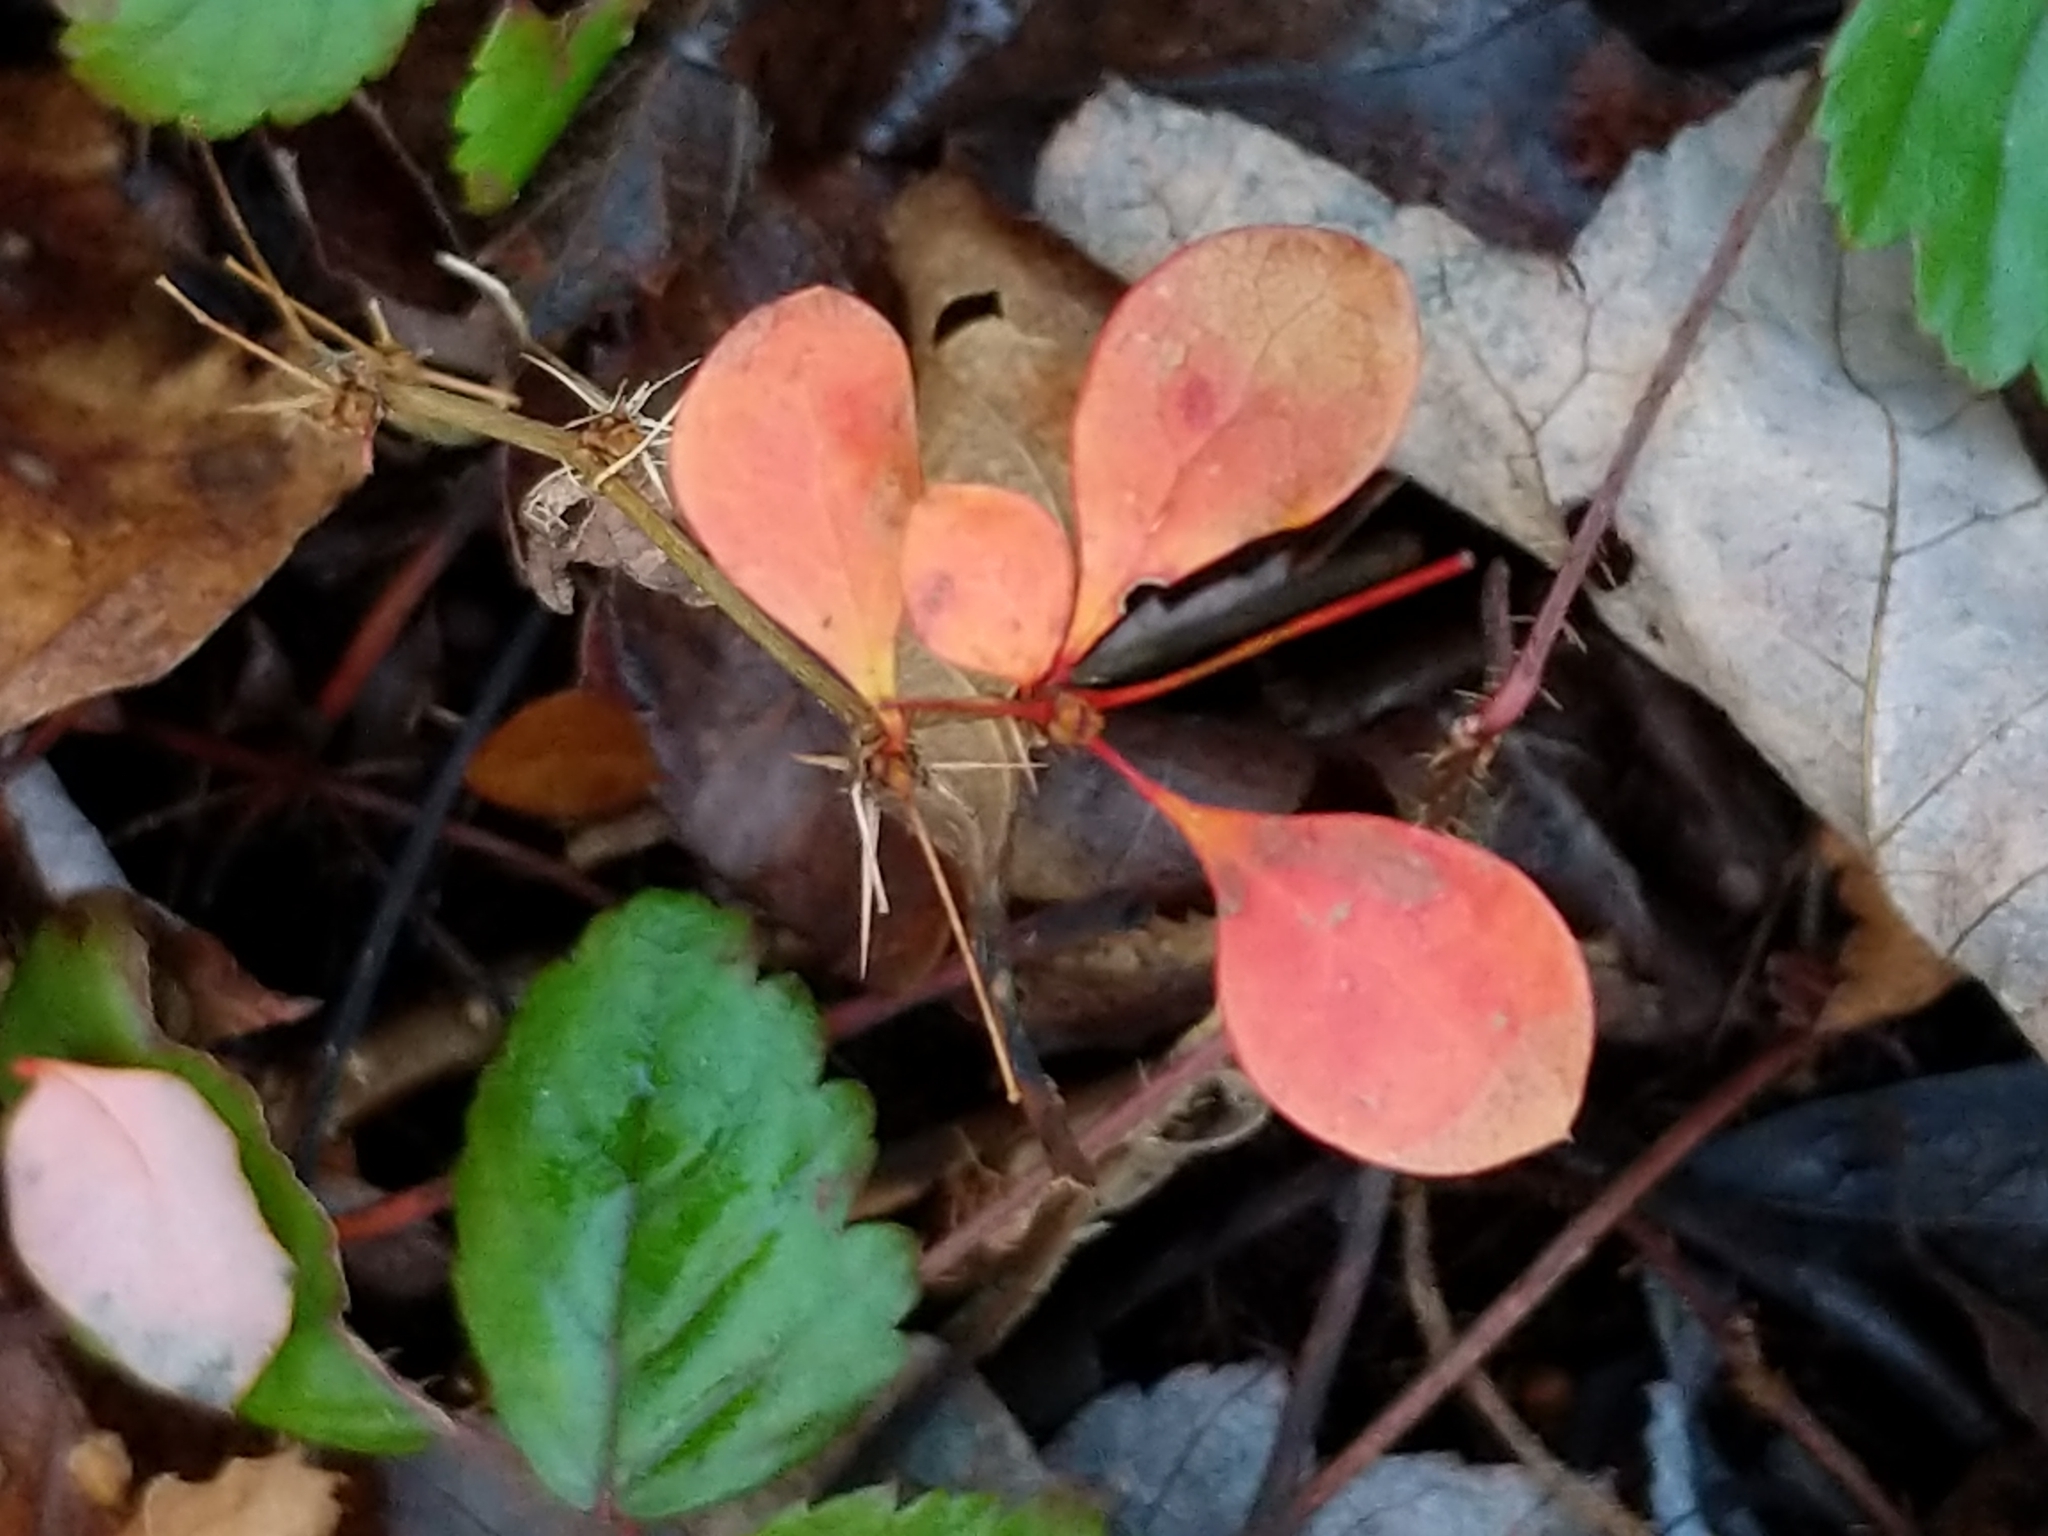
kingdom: Plantae
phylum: Tracheophyta
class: Magnoliopsida
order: Ranunculales
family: Berberidaceae
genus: Berberis
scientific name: Berberis thunbergii
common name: Japanese barberry
